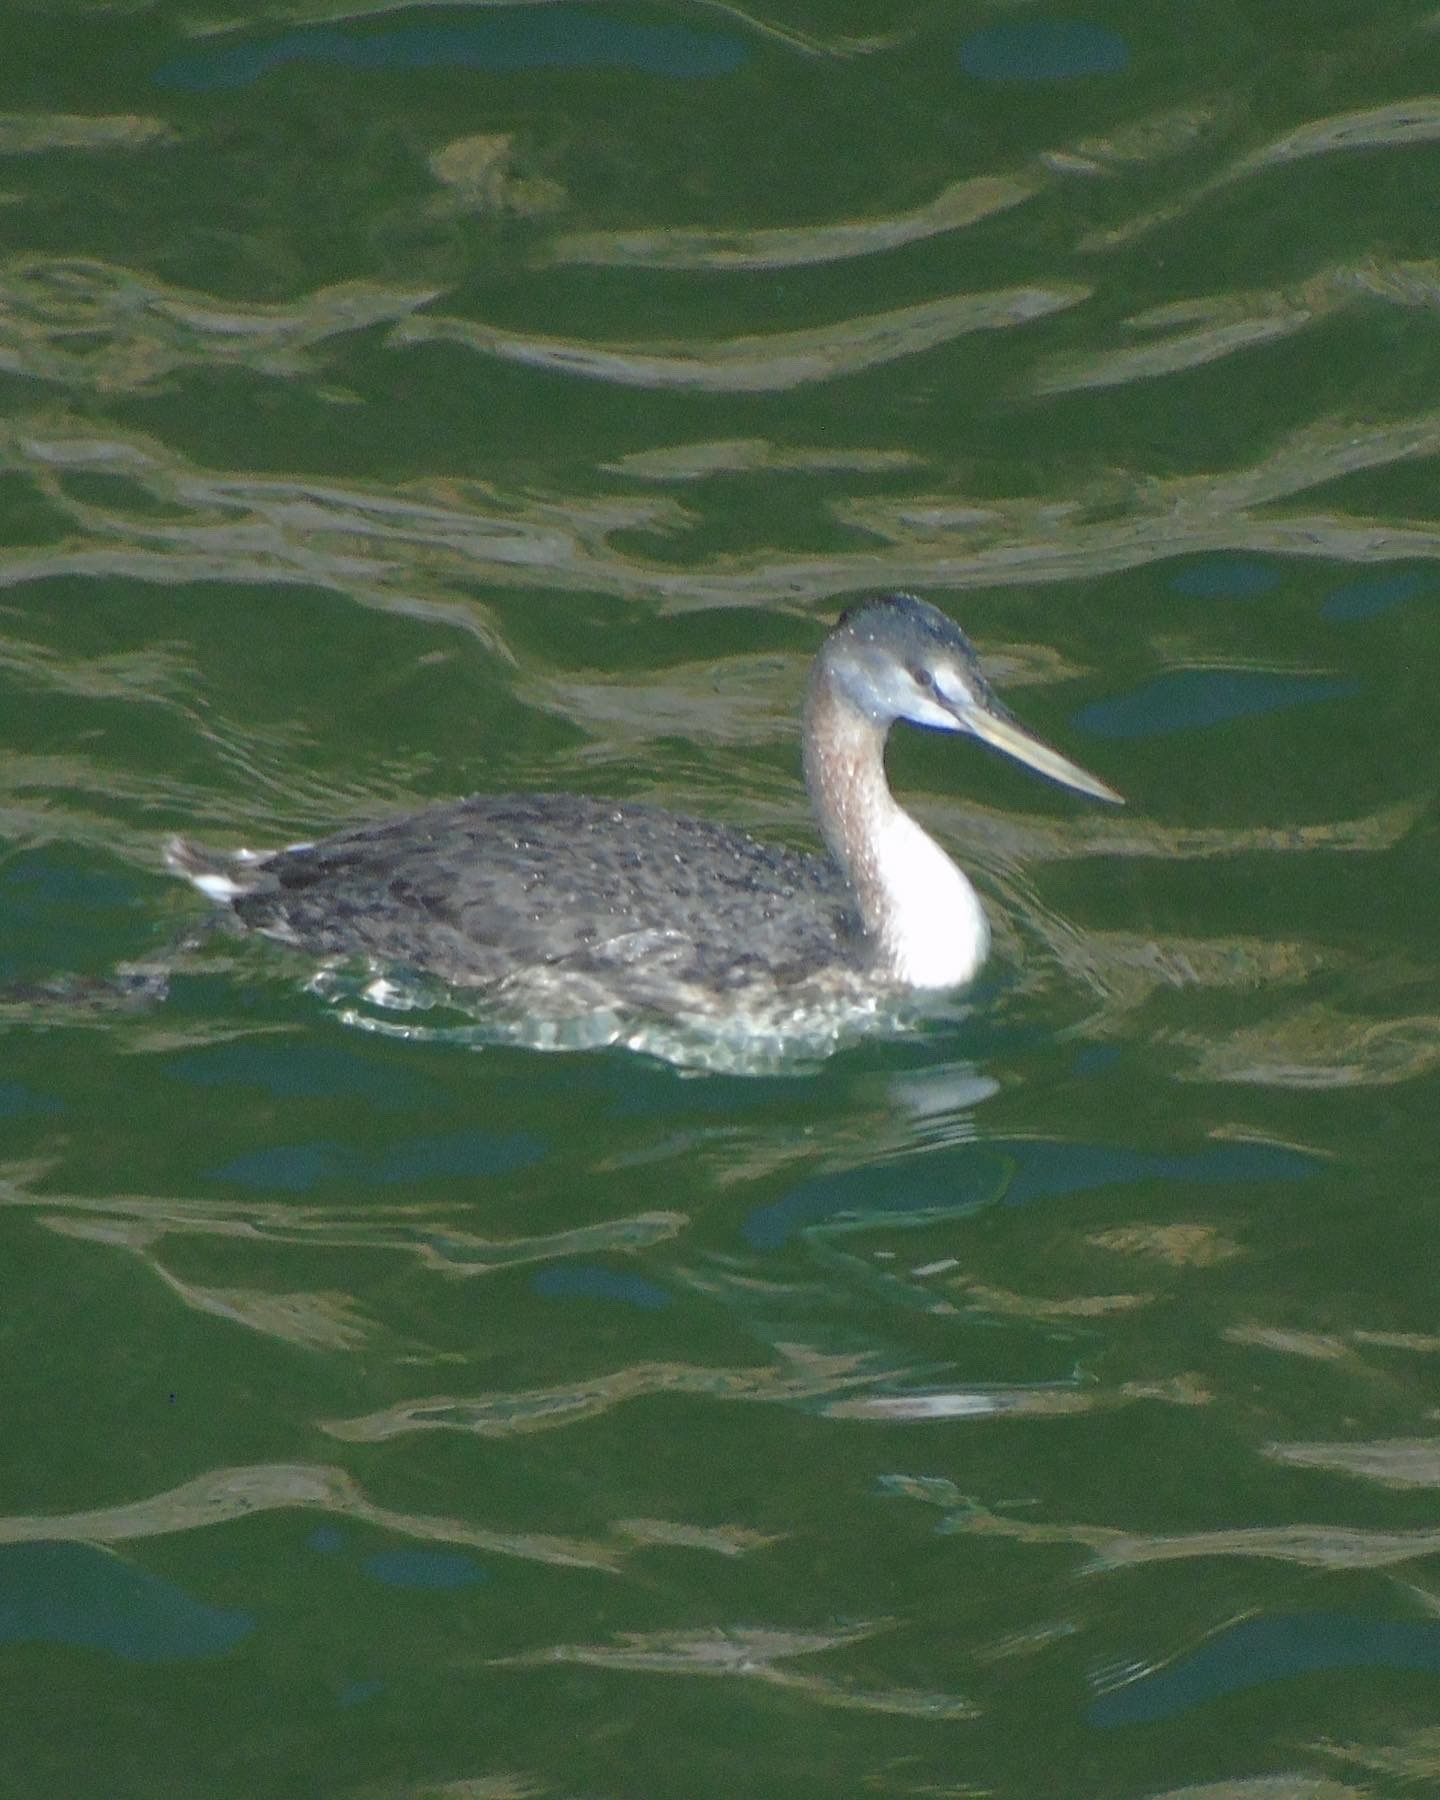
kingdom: Animalia
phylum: Chordata
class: Aves
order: Podicipediformes
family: Podicipedidae
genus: Podiceps
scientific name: Podiceps major
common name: Great grebe
